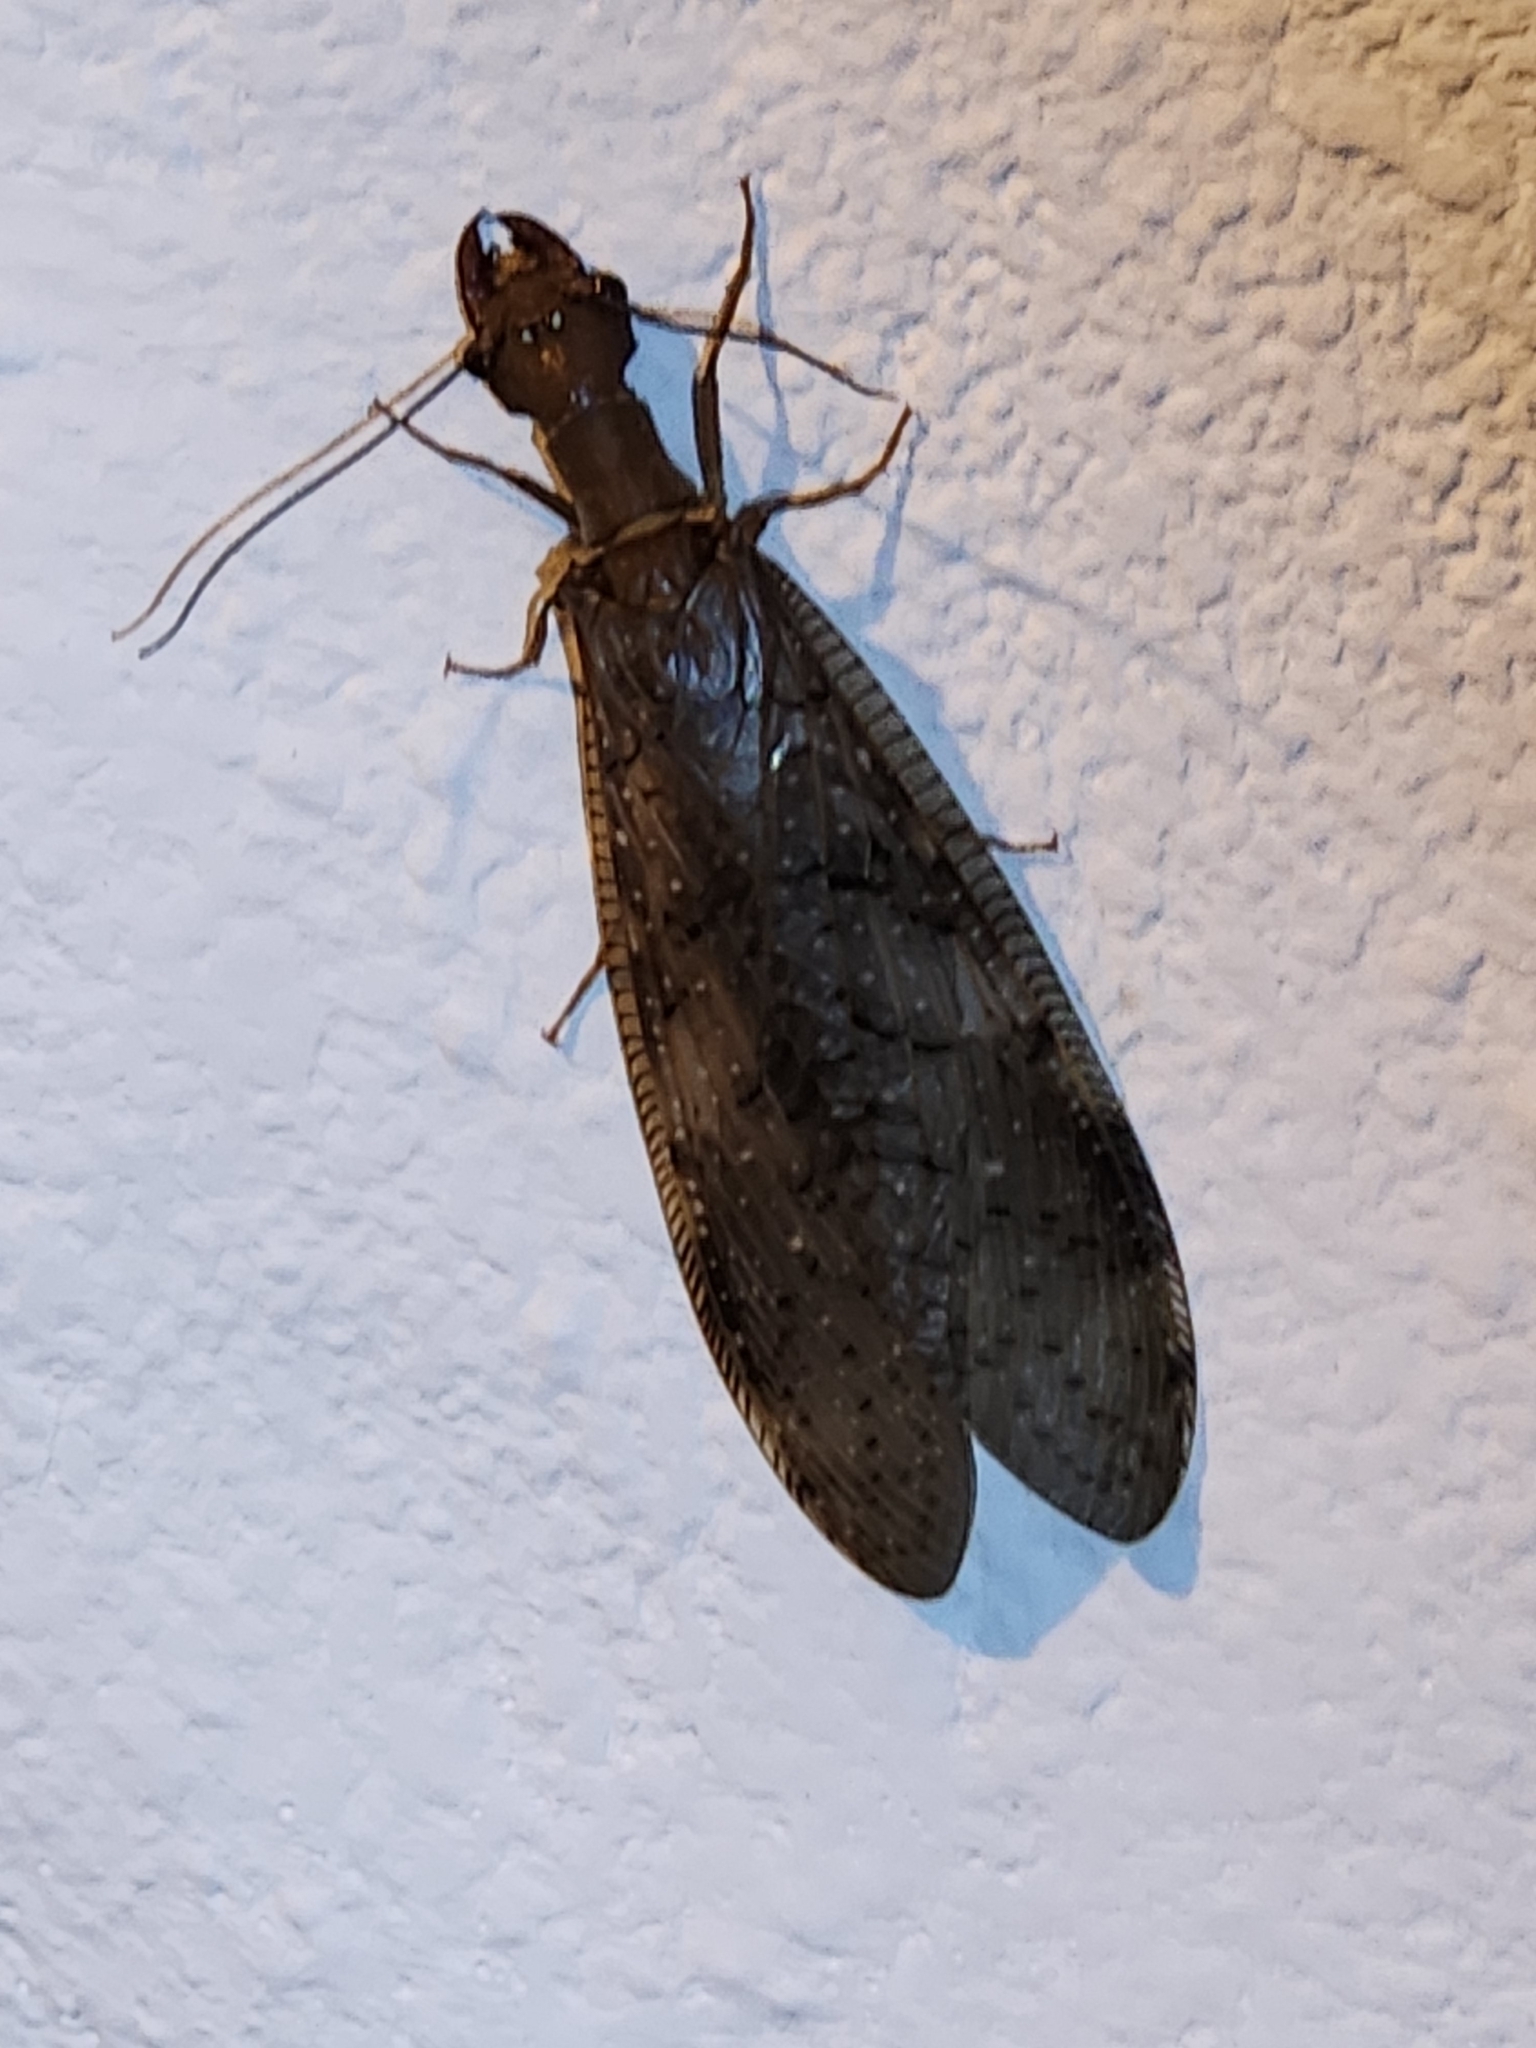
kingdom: Animalia
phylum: Arthropoda
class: Insecta
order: Megaloptera
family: Corydalidae
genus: Corydalus
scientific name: Corydalus peruvianus
